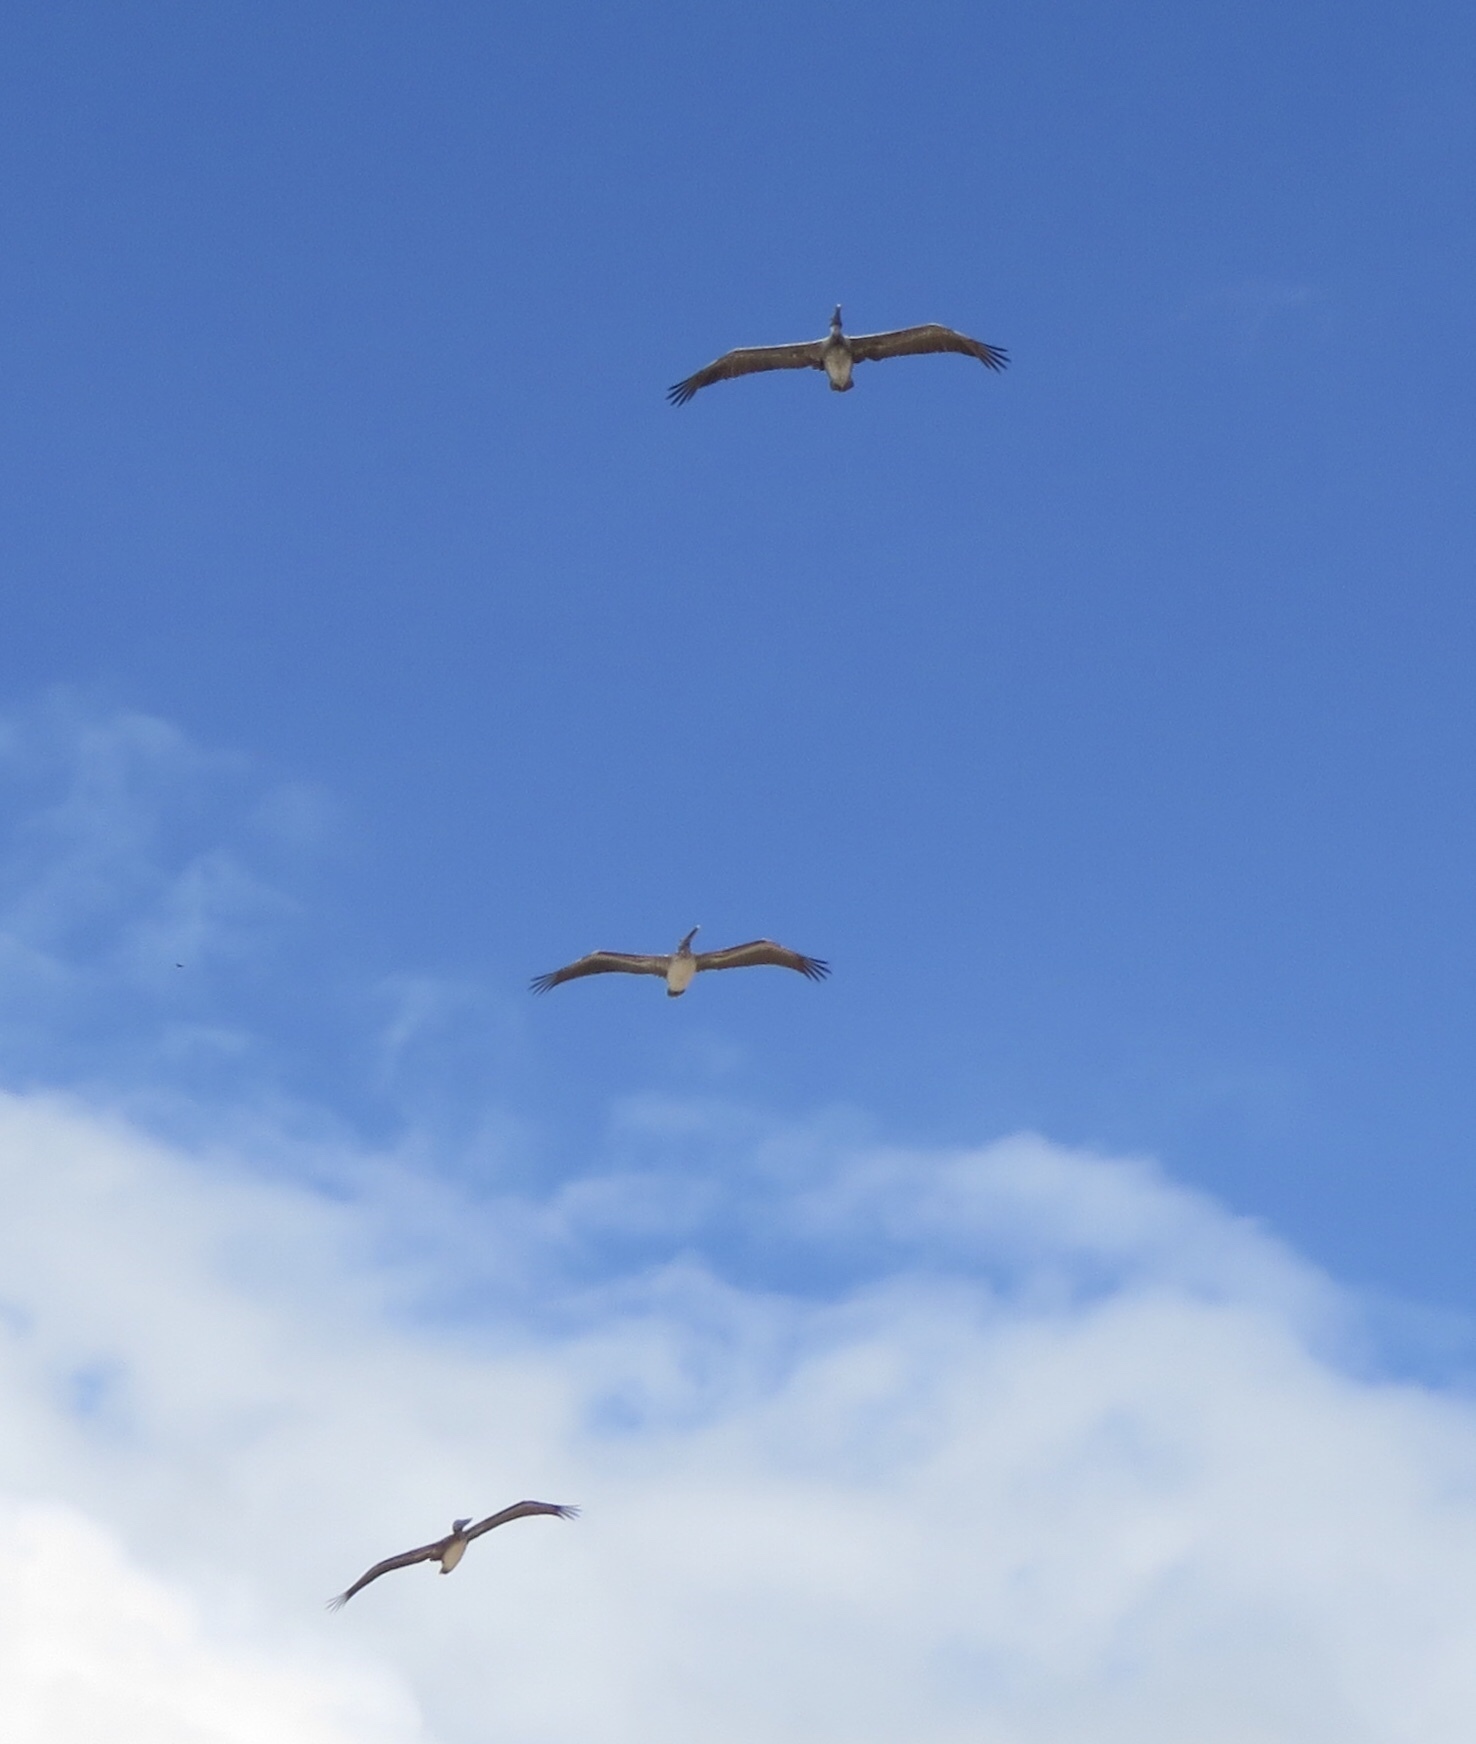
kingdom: Animalia
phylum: Chordata
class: Aves
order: Pelecaniformes
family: Pelecanidae
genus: Pelecanus
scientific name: Pelecanus occidentalis
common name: Brown pelican
